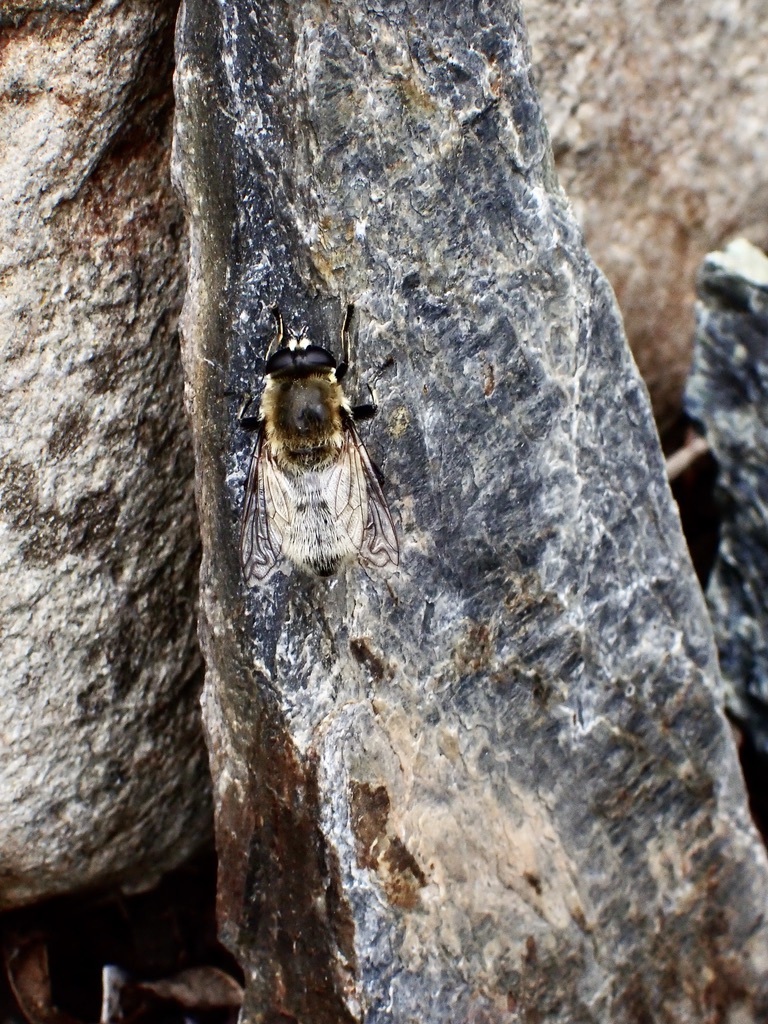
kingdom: Animalia
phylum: Arthropoda
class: Insecta
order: Diptera
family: Syrphidae
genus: Merodon
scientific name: Merodon equestris
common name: Greater bulb-fly
